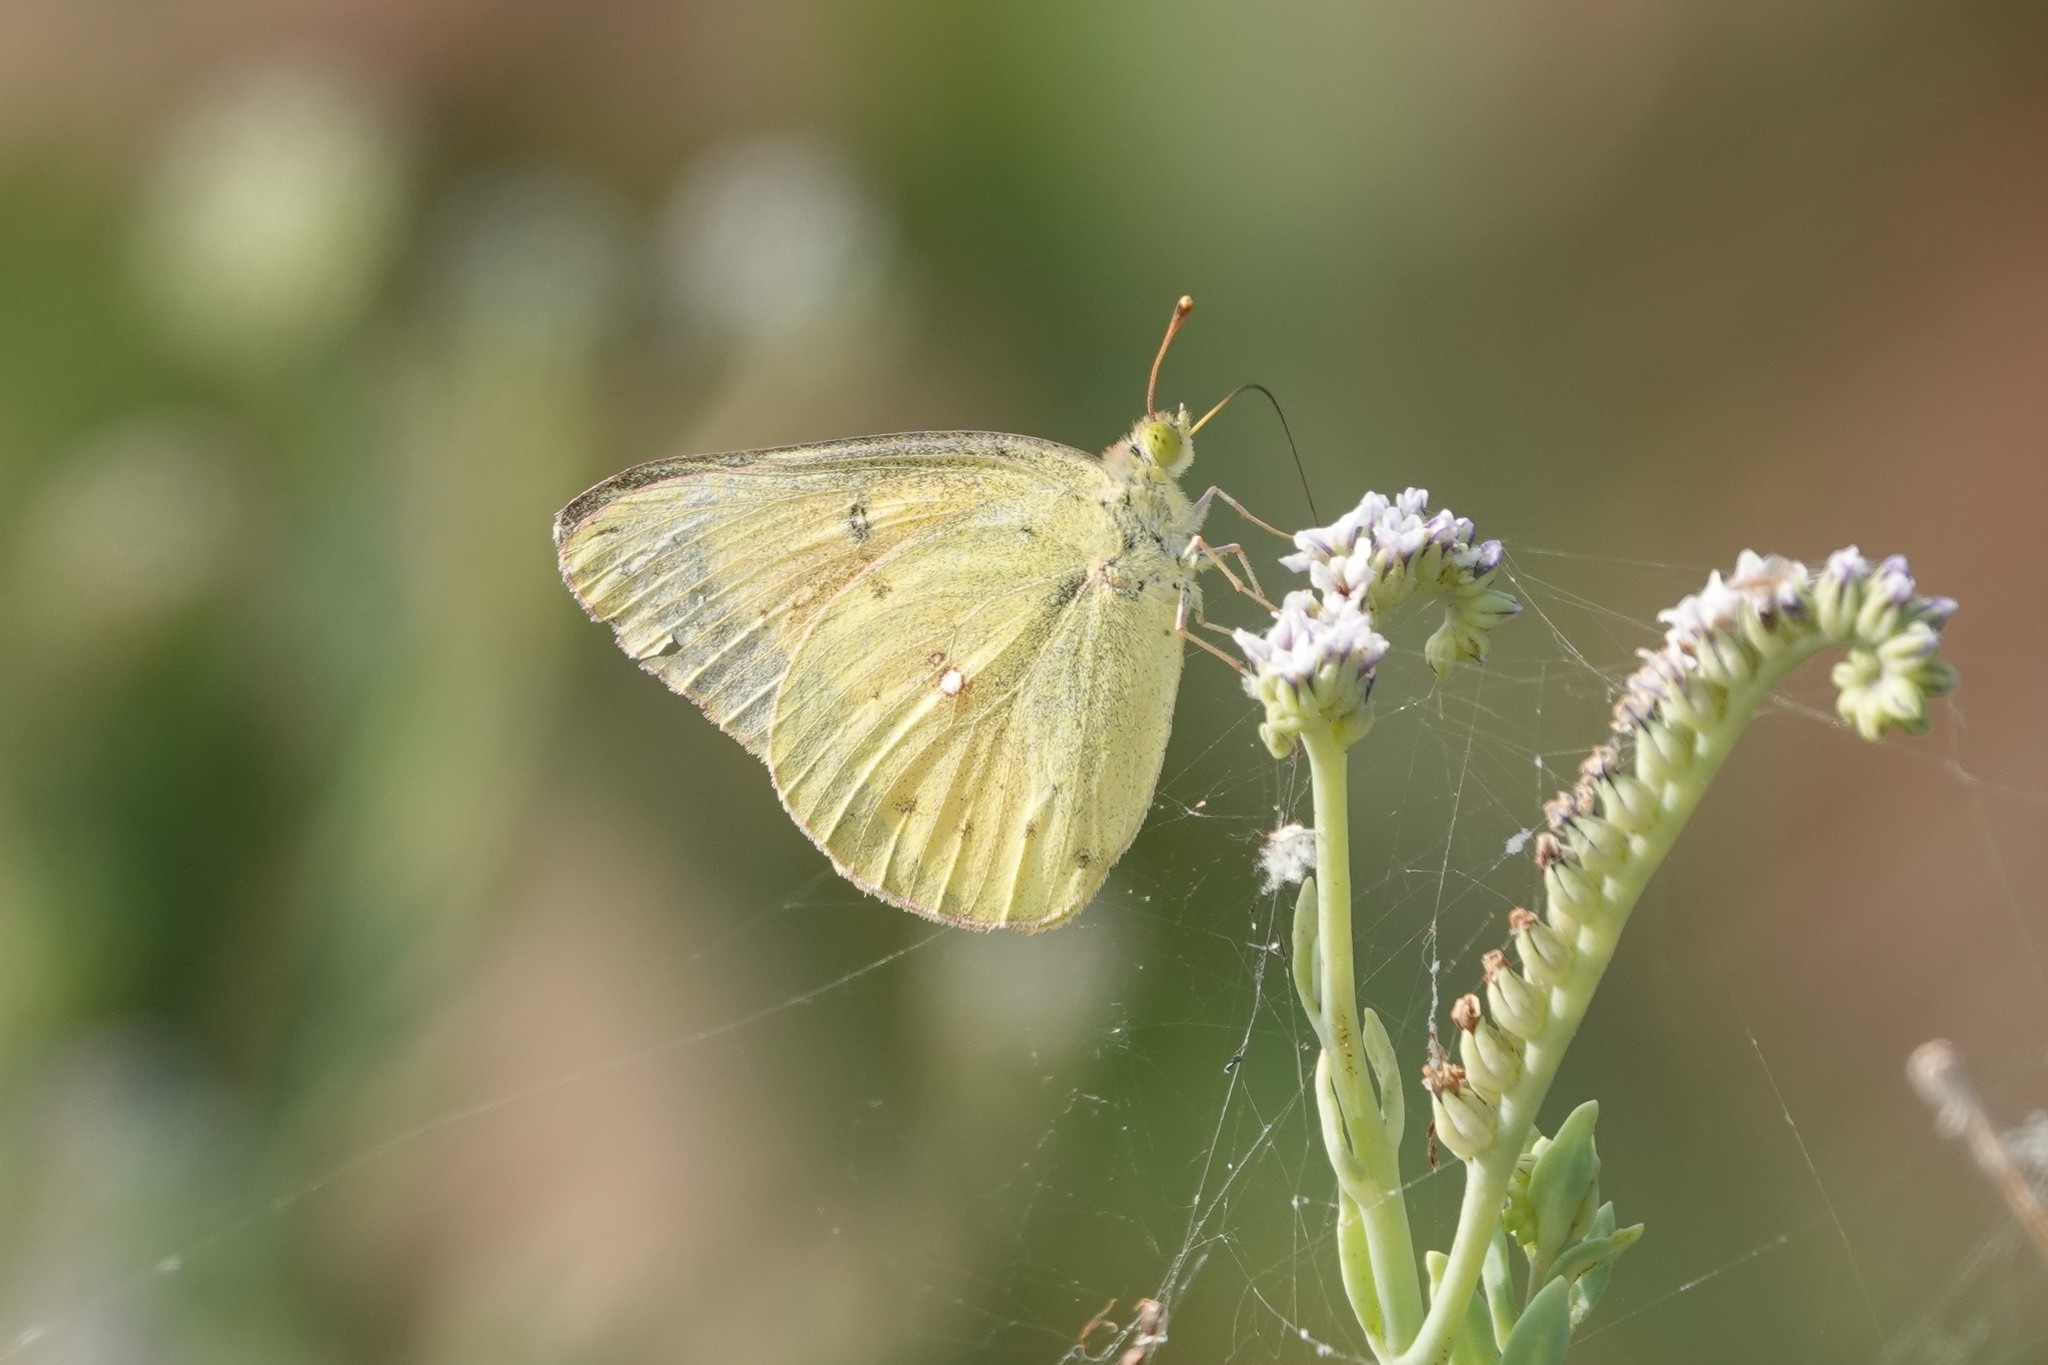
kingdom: Animalia
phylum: Arthropoda
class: Insecta
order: Lepidoptera
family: Pieridae
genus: Colias
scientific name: Colias eurytheme
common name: Alfalfa butterfly
